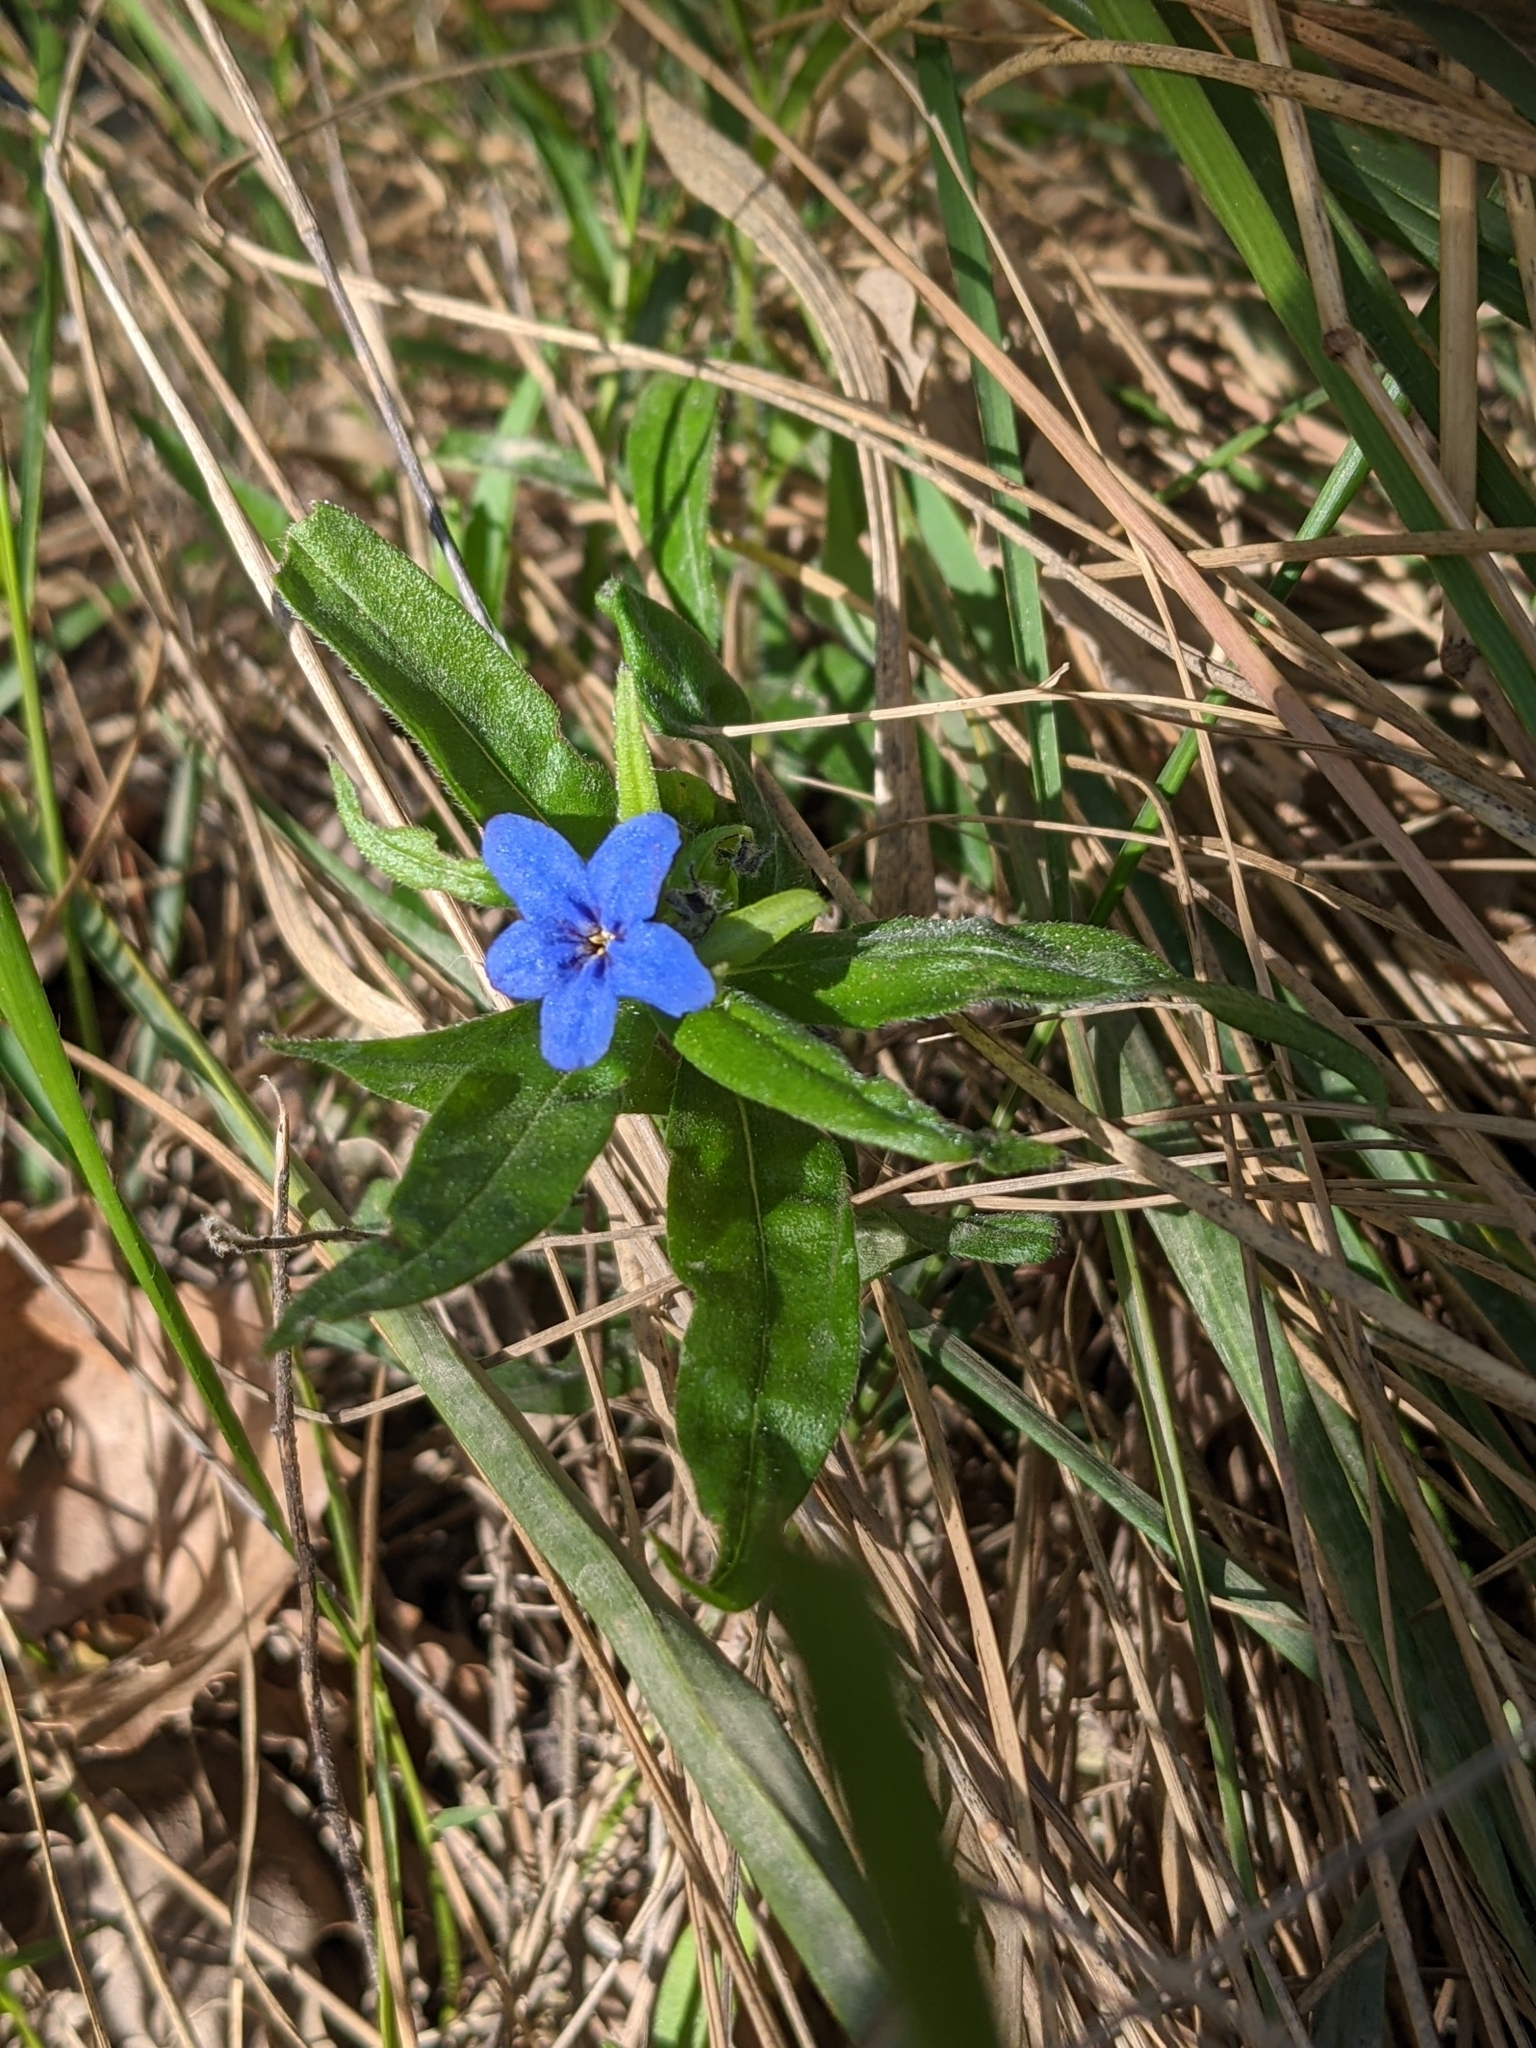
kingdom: Plantae
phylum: Tracheophyta
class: Magnoliopsida
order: Boraginales
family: Boraginaceae
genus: Aegonychon
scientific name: Aegonychon purpurocaeruleum
